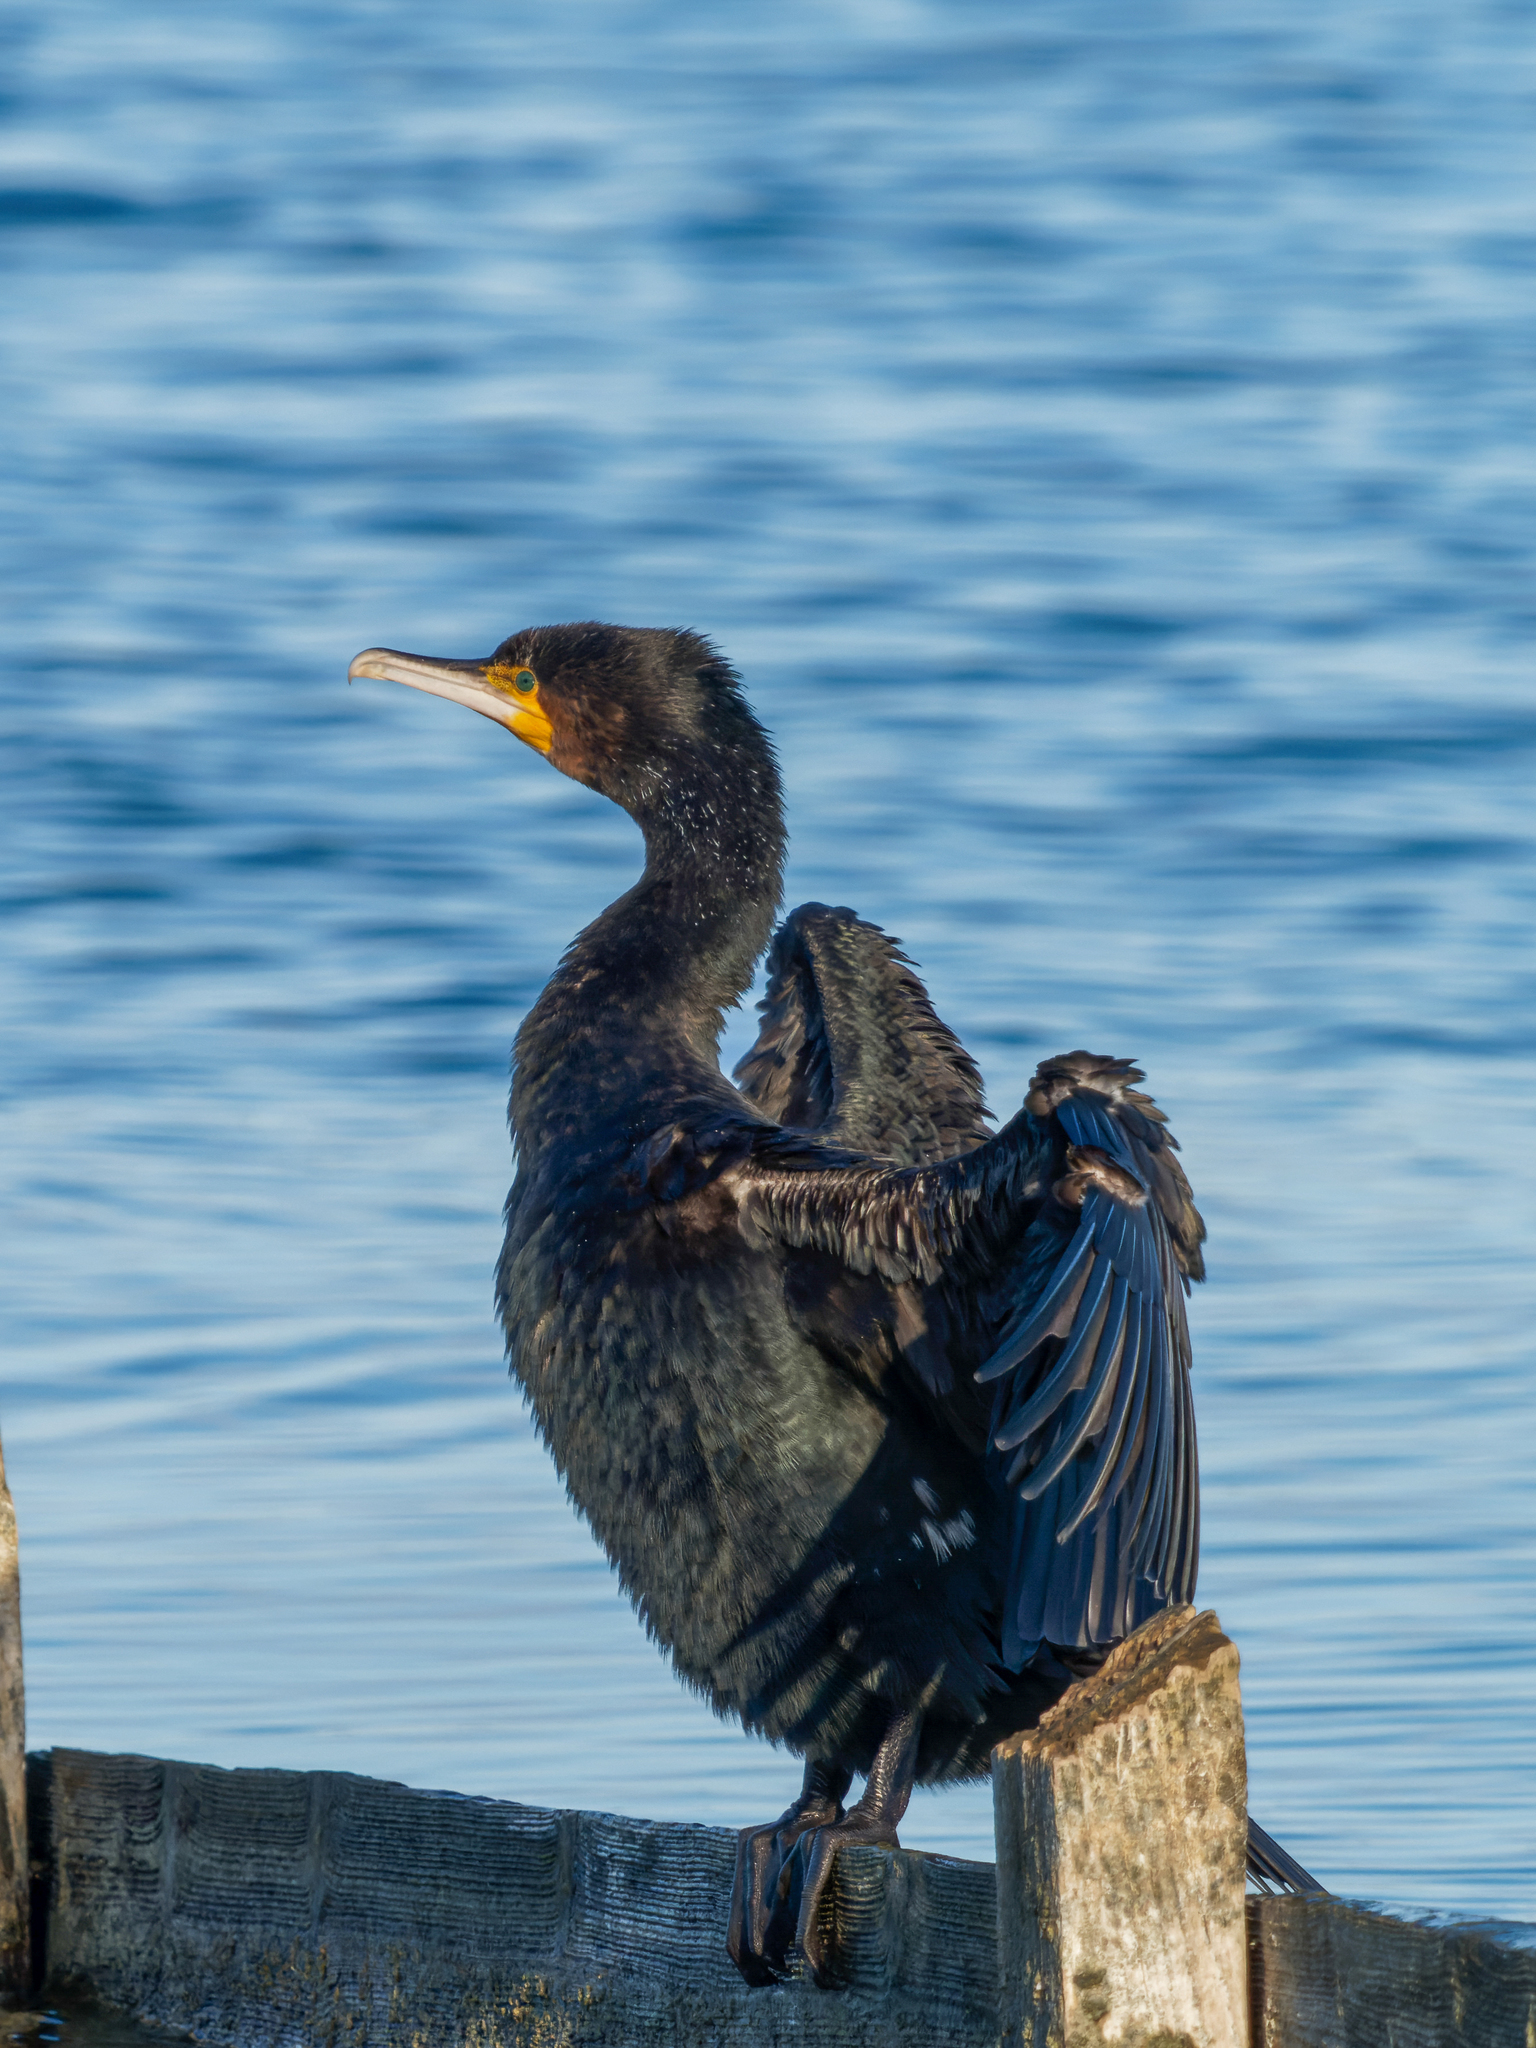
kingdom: Animalia
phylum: Chordata
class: Aves
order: Suliformes
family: Phalacrocoracidae
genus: Phalacrocorax
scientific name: Phalacrocorax carbo
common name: Great cormorant
